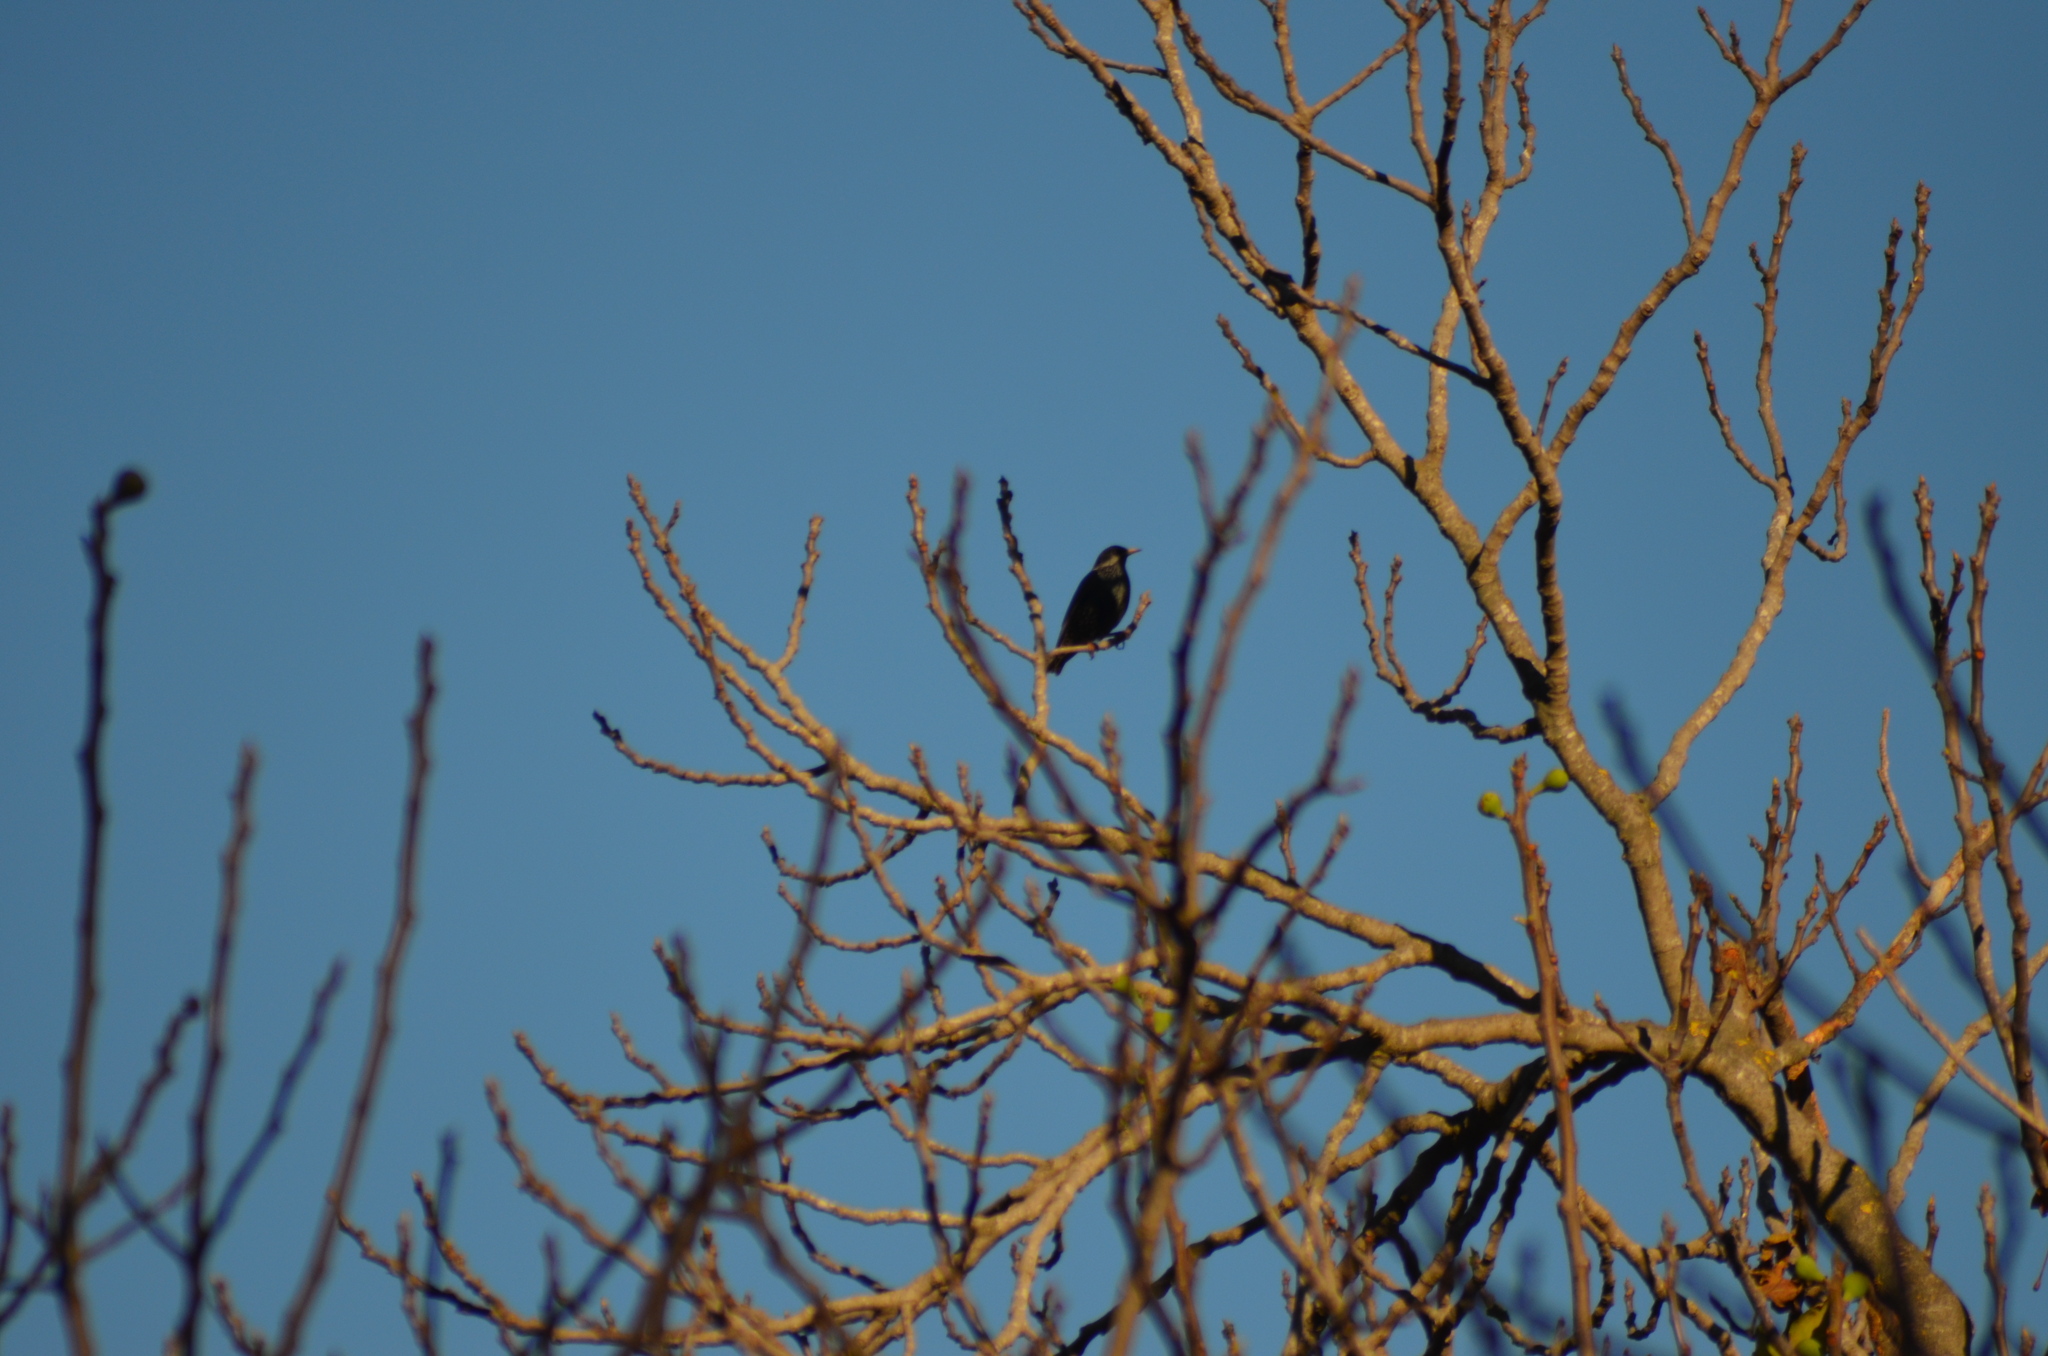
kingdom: Animalia
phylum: Chordata
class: Aves
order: Passeriformes
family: Sturnidae
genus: Sturnus
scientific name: Sturnus vulgaris
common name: Common starling
